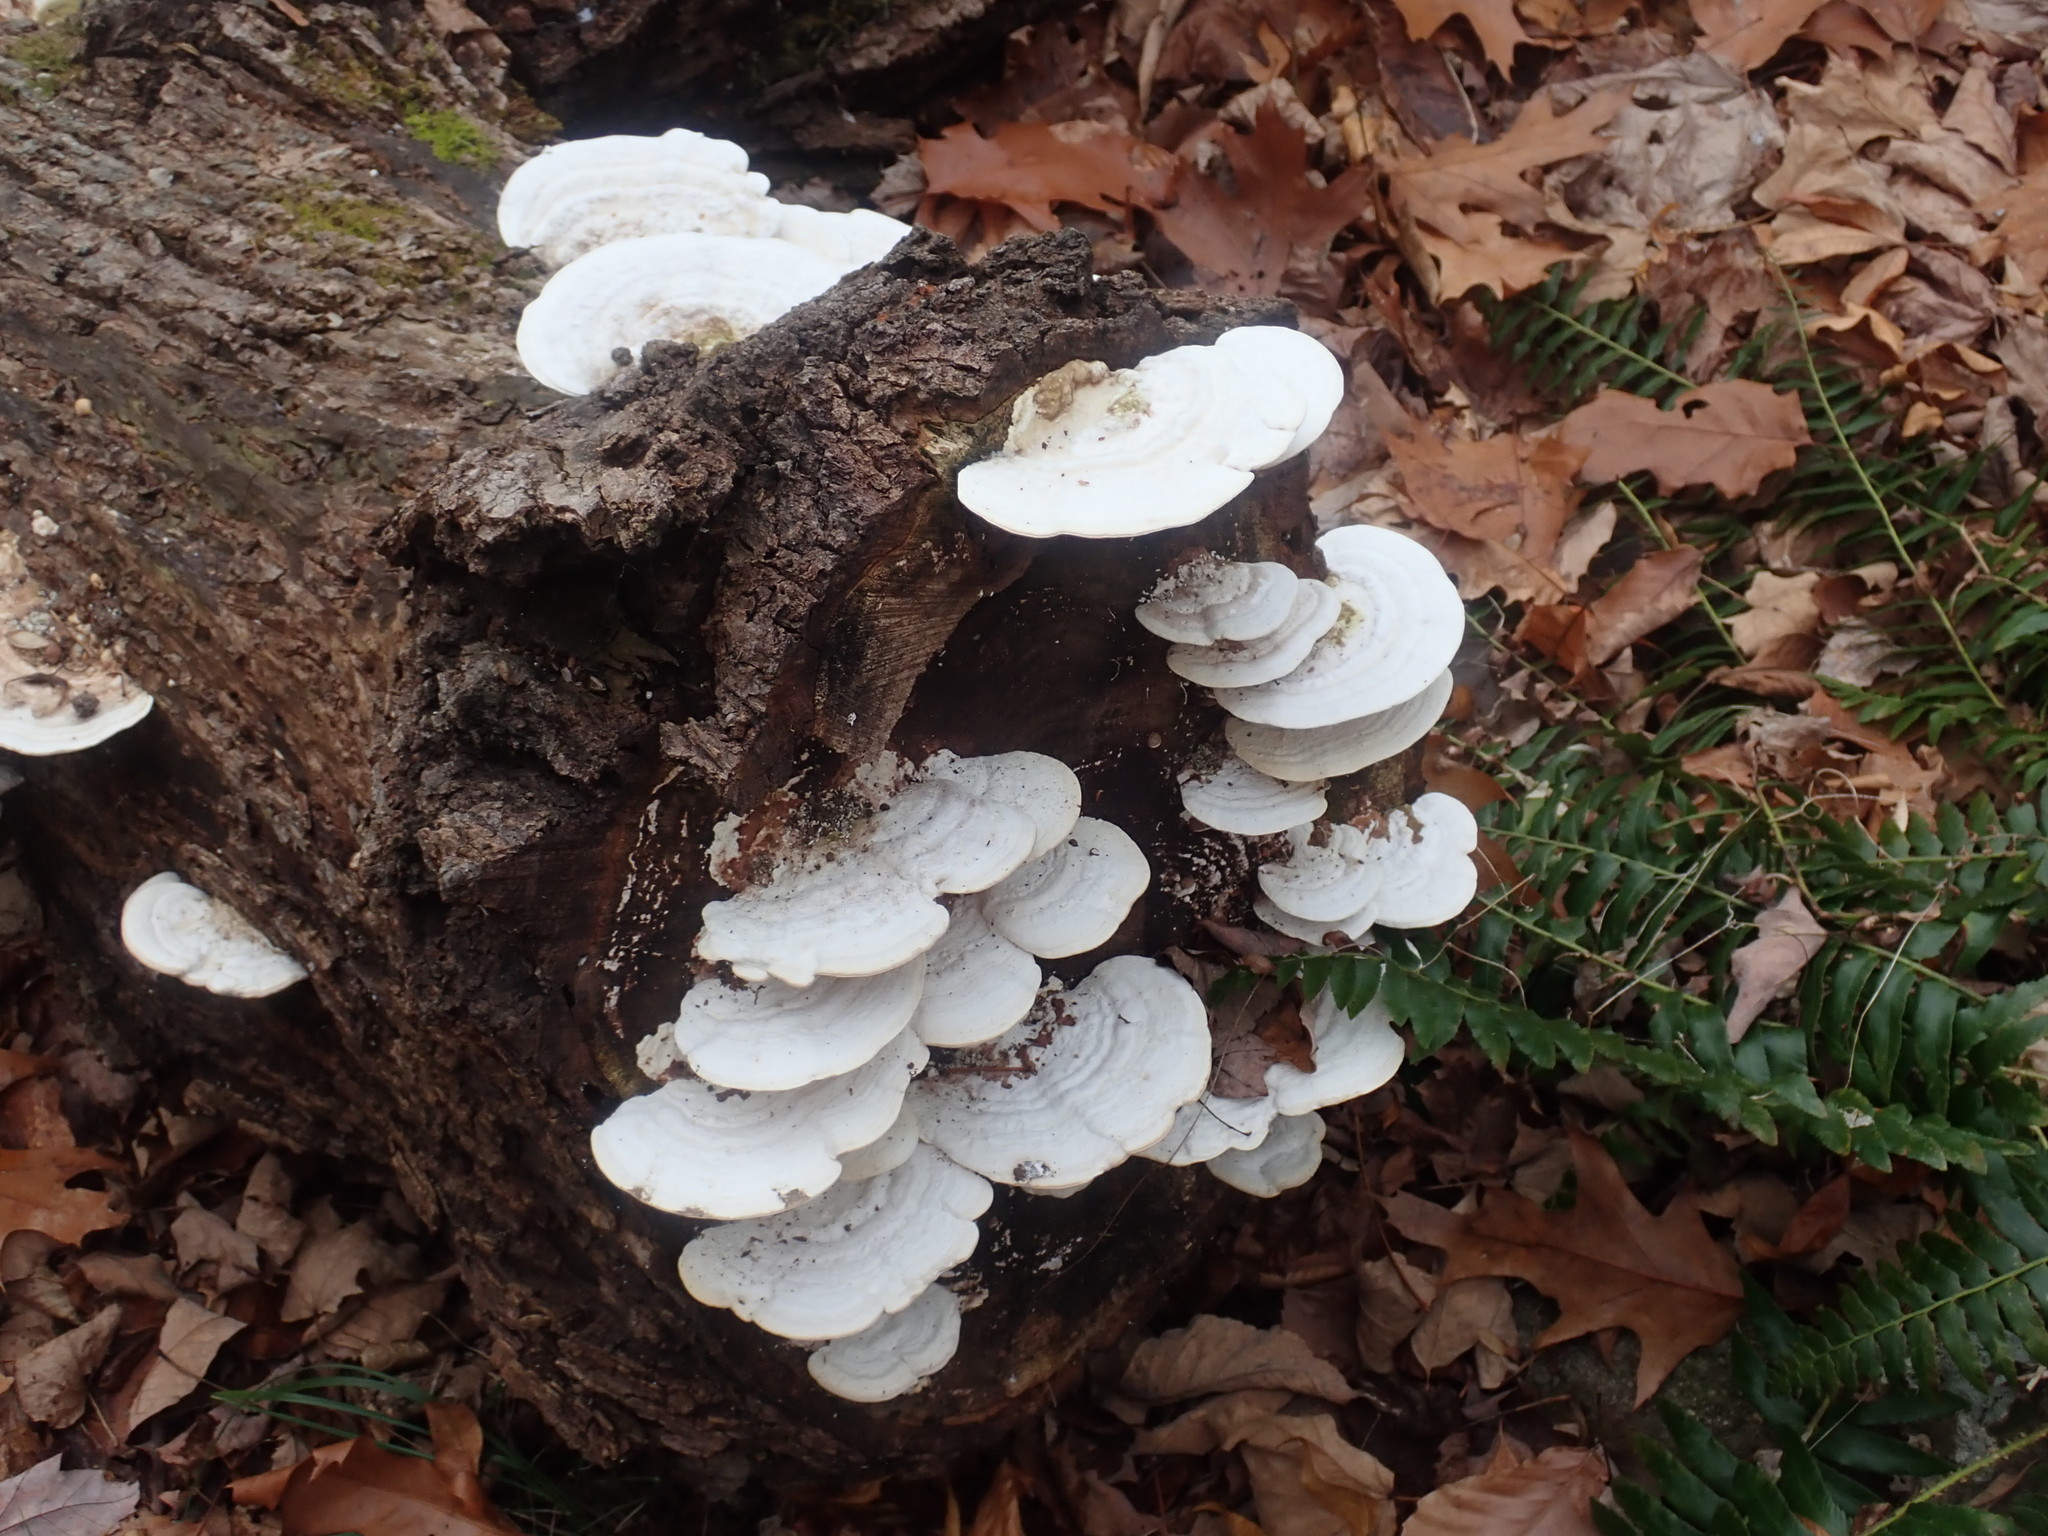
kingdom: Fungi
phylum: Basidiomycota
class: Agaricomycetes
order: Polyporales
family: Polyporaceae
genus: Trametes
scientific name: Trametes gibbosa
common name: Lumpy bracket
